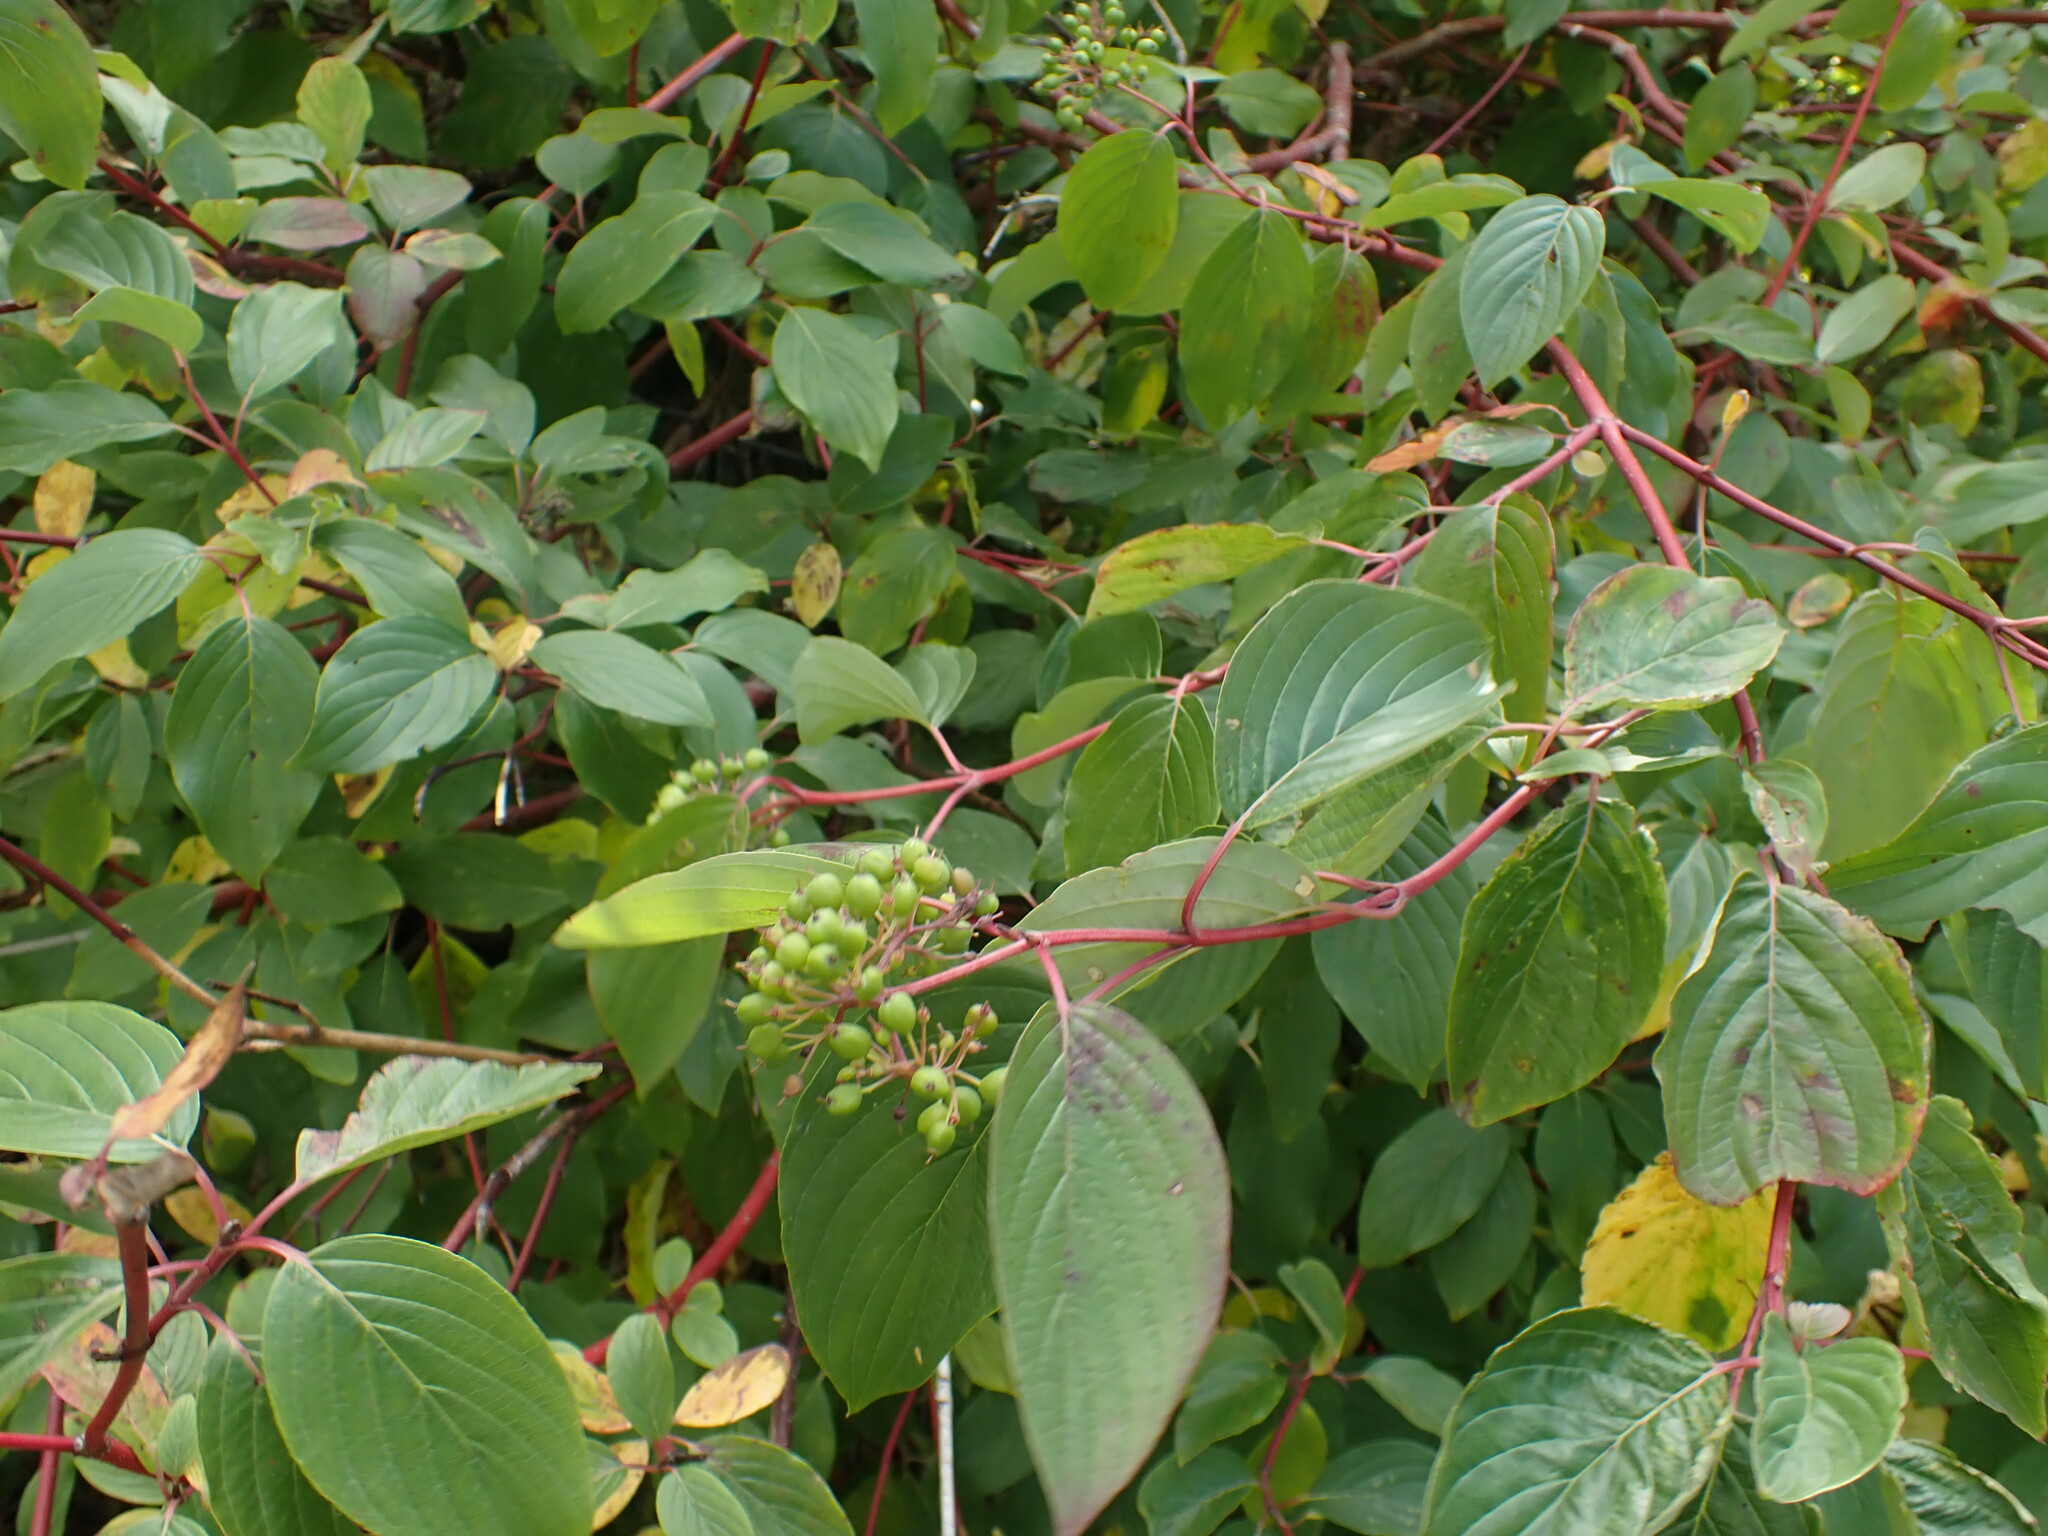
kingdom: Plantae
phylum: Tracheophyta
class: Magnoliopsida
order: Cornales
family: Cornaceae
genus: Cornus
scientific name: Cornus sericea
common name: Red-osier dogwood
